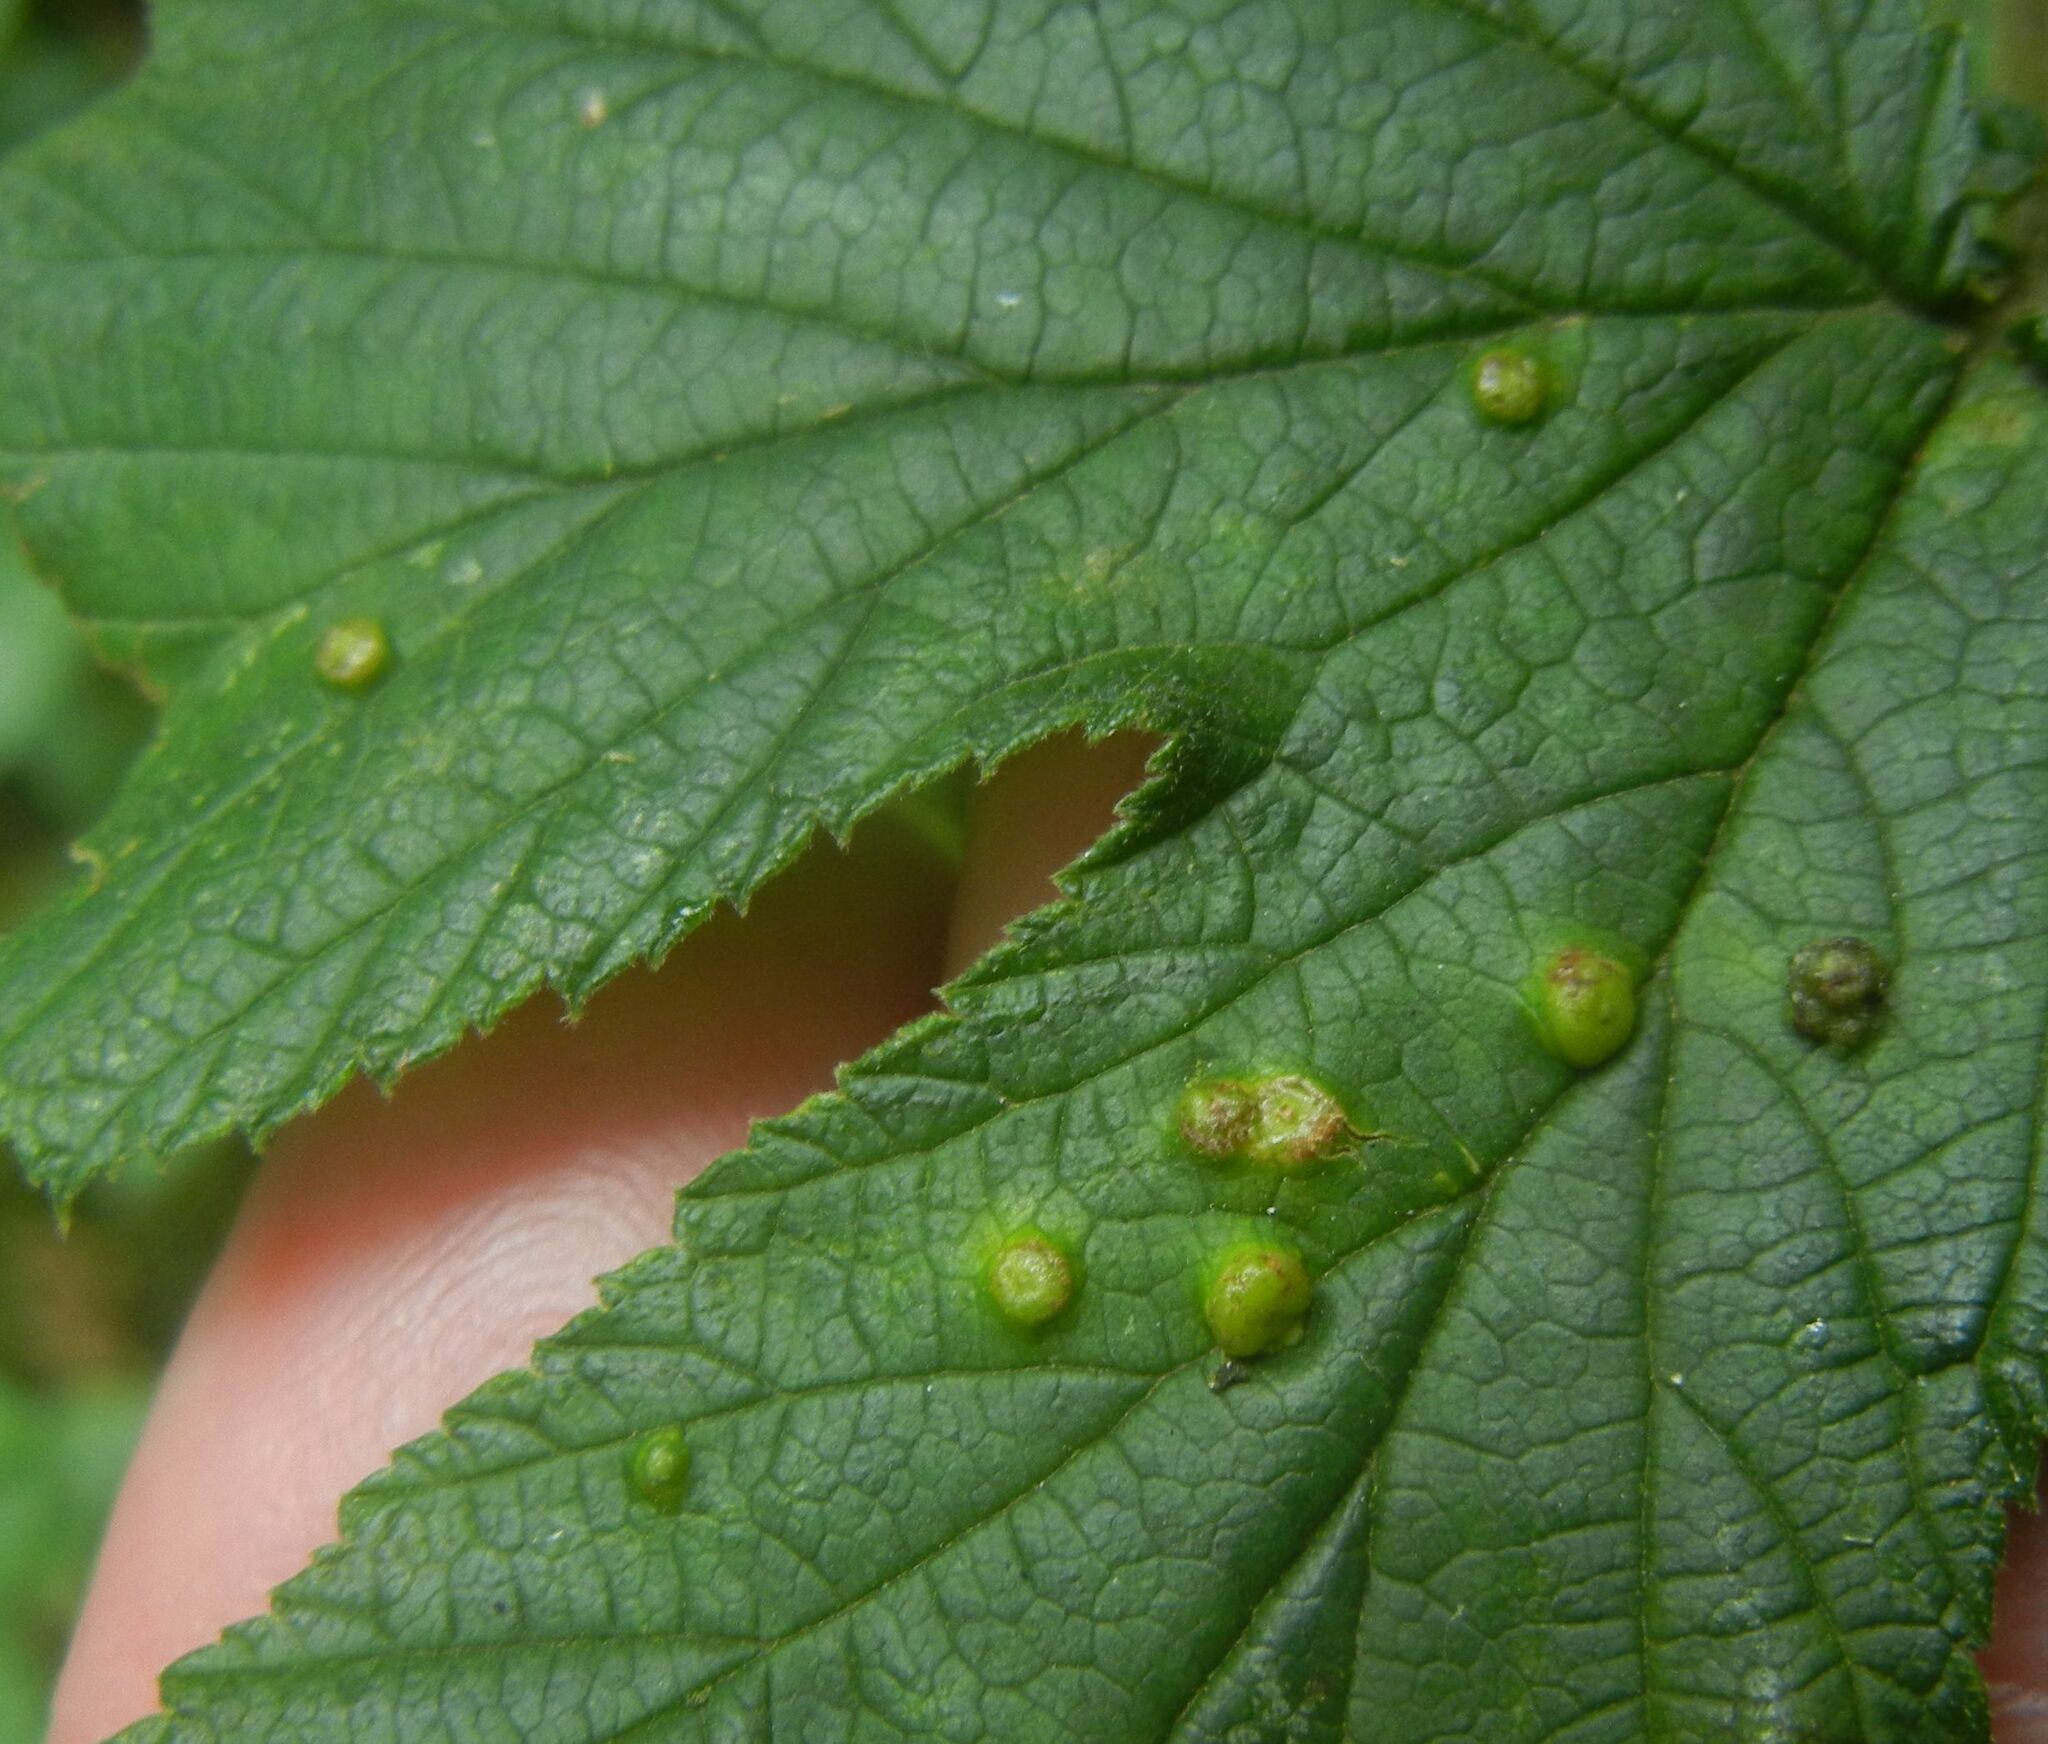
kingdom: Animalia
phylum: Arthropoda
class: Insecta
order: Diptera
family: Cecidomyiidae
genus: Dasineura
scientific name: Dasineura ulmaria
